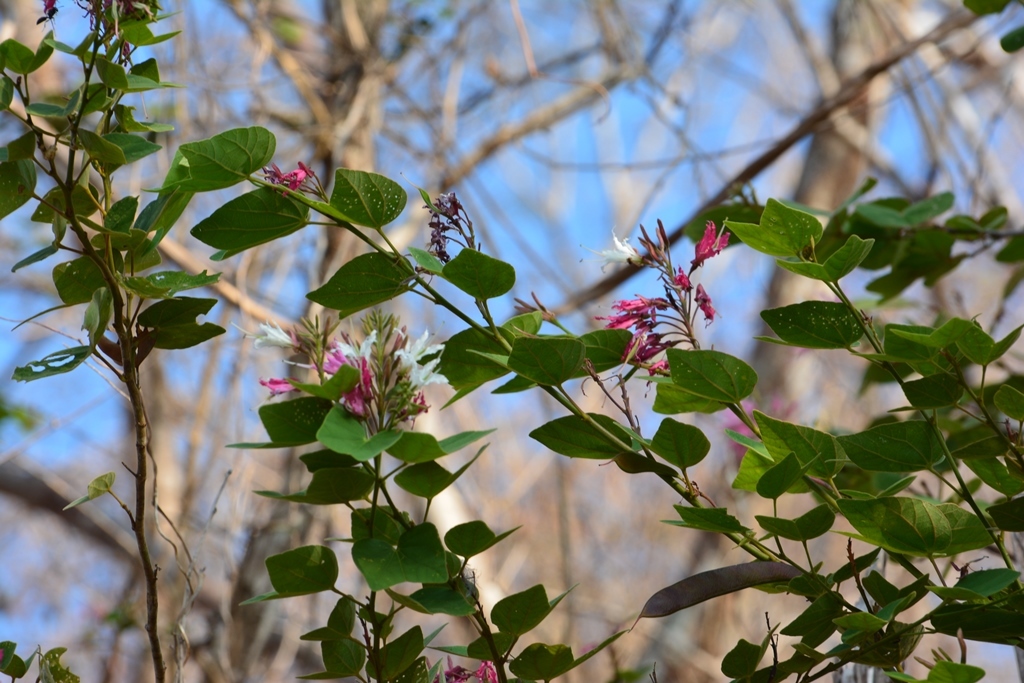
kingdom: Plantae
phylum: Tracheophyta
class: Magnoliopsida
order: Fabales
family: Fabaceae
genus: Bauhinia
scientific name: Bauhinia divaricata
